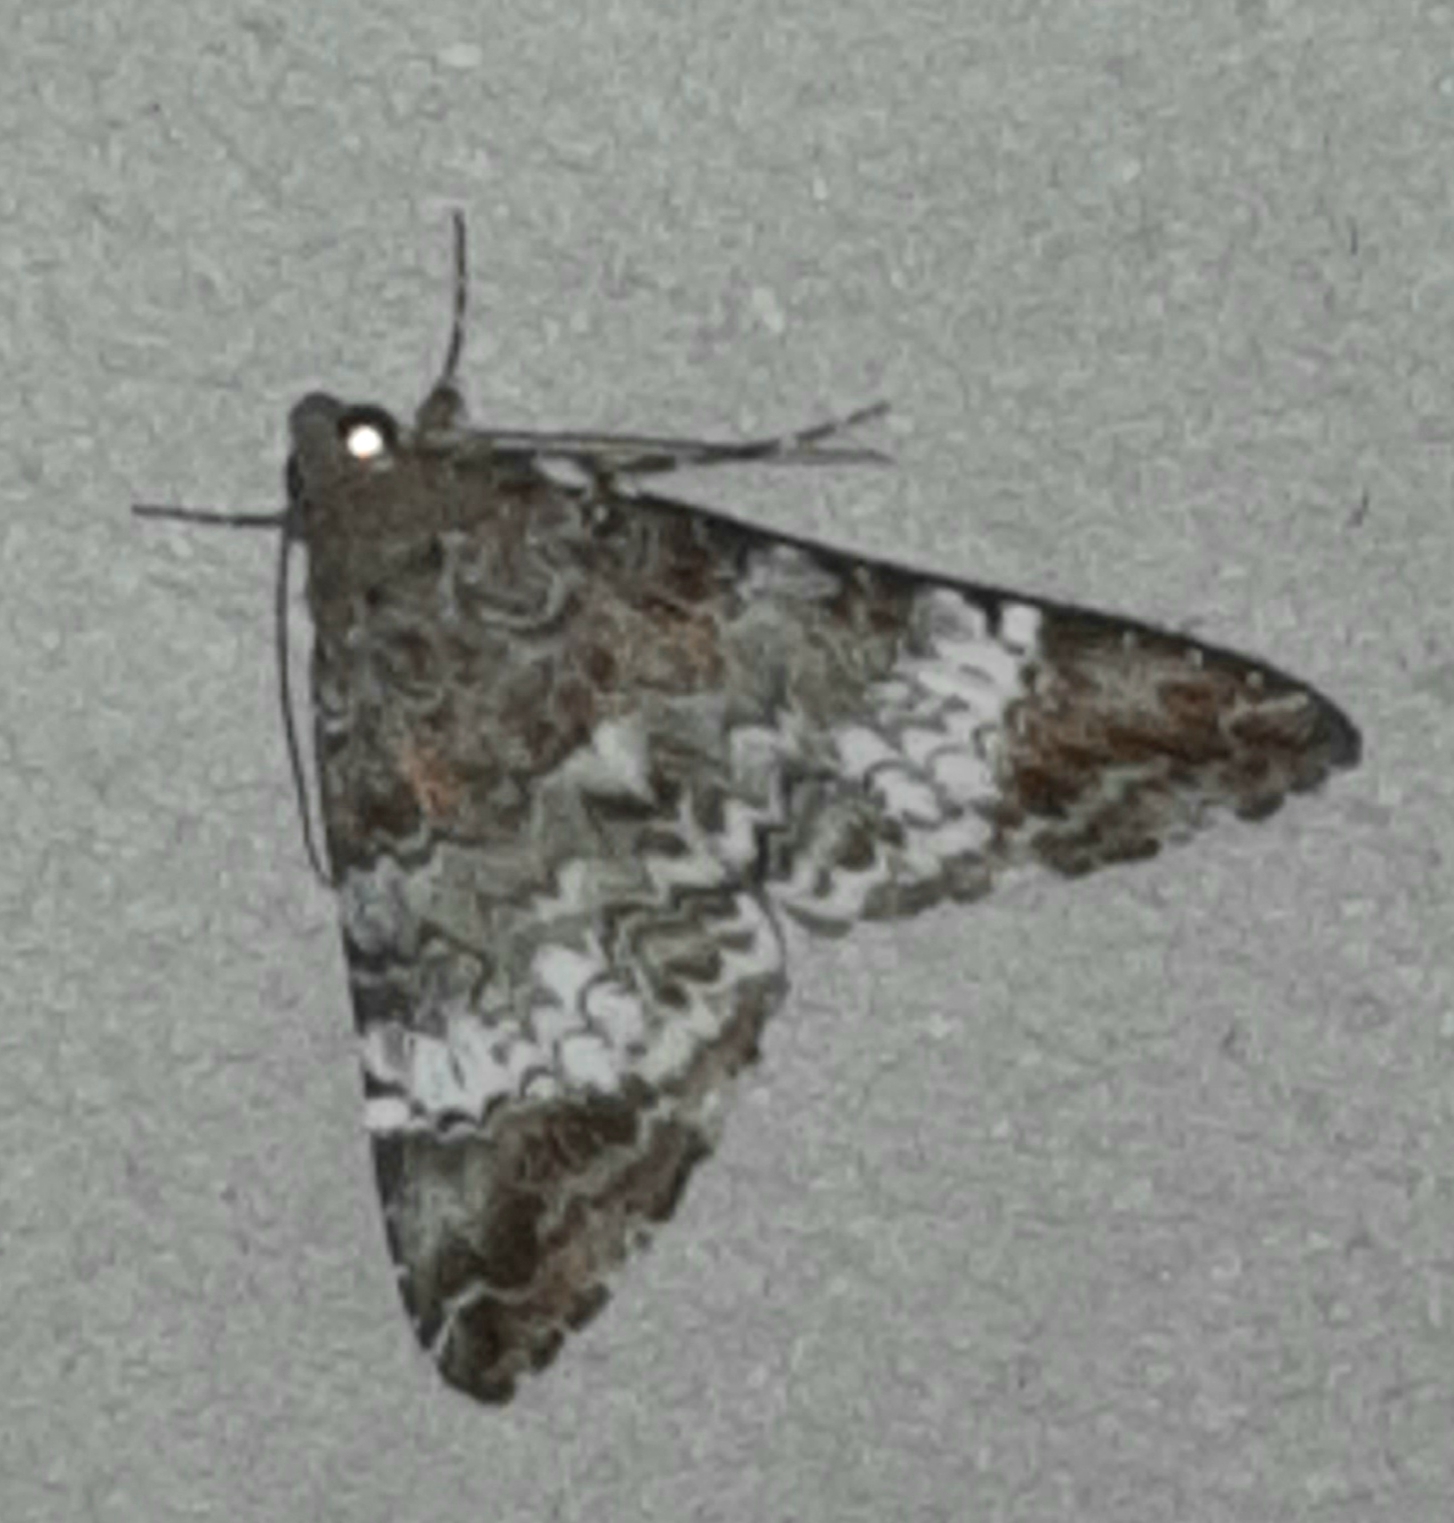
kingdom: Animalia
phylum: Arthropoda
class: Insecta
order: Lepidoptera
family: Erebidae
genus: Acolasis
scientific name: Acolasis Coenipeta damonia
